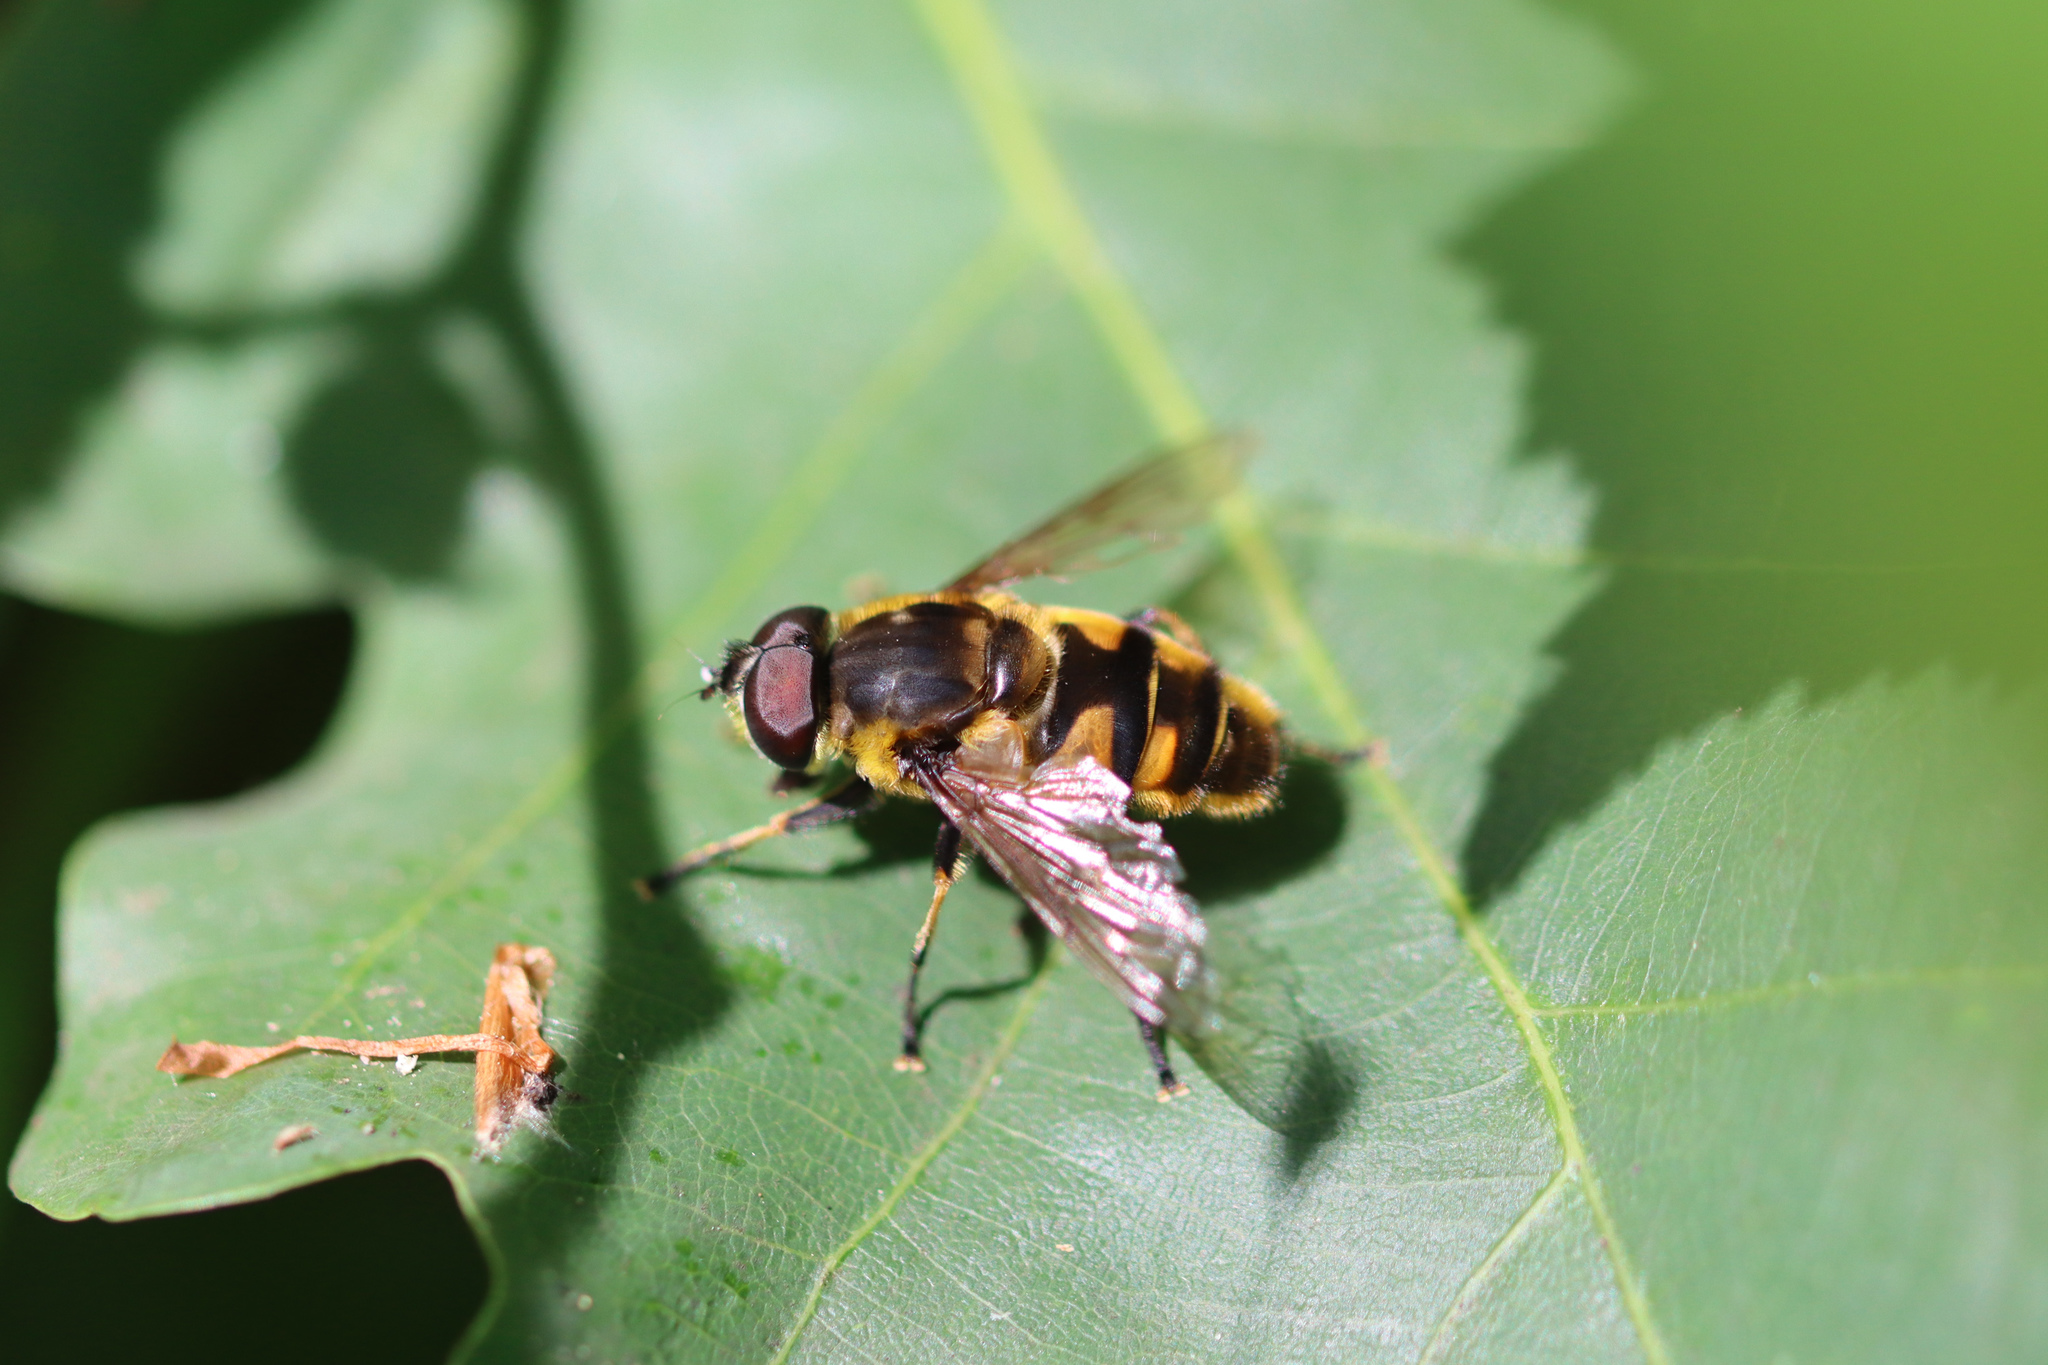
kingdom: Animalia
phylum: Arthropoda
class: Insecta
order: Diptera
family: Syrphidae
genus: Myathropa
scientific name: Myathropa florea
